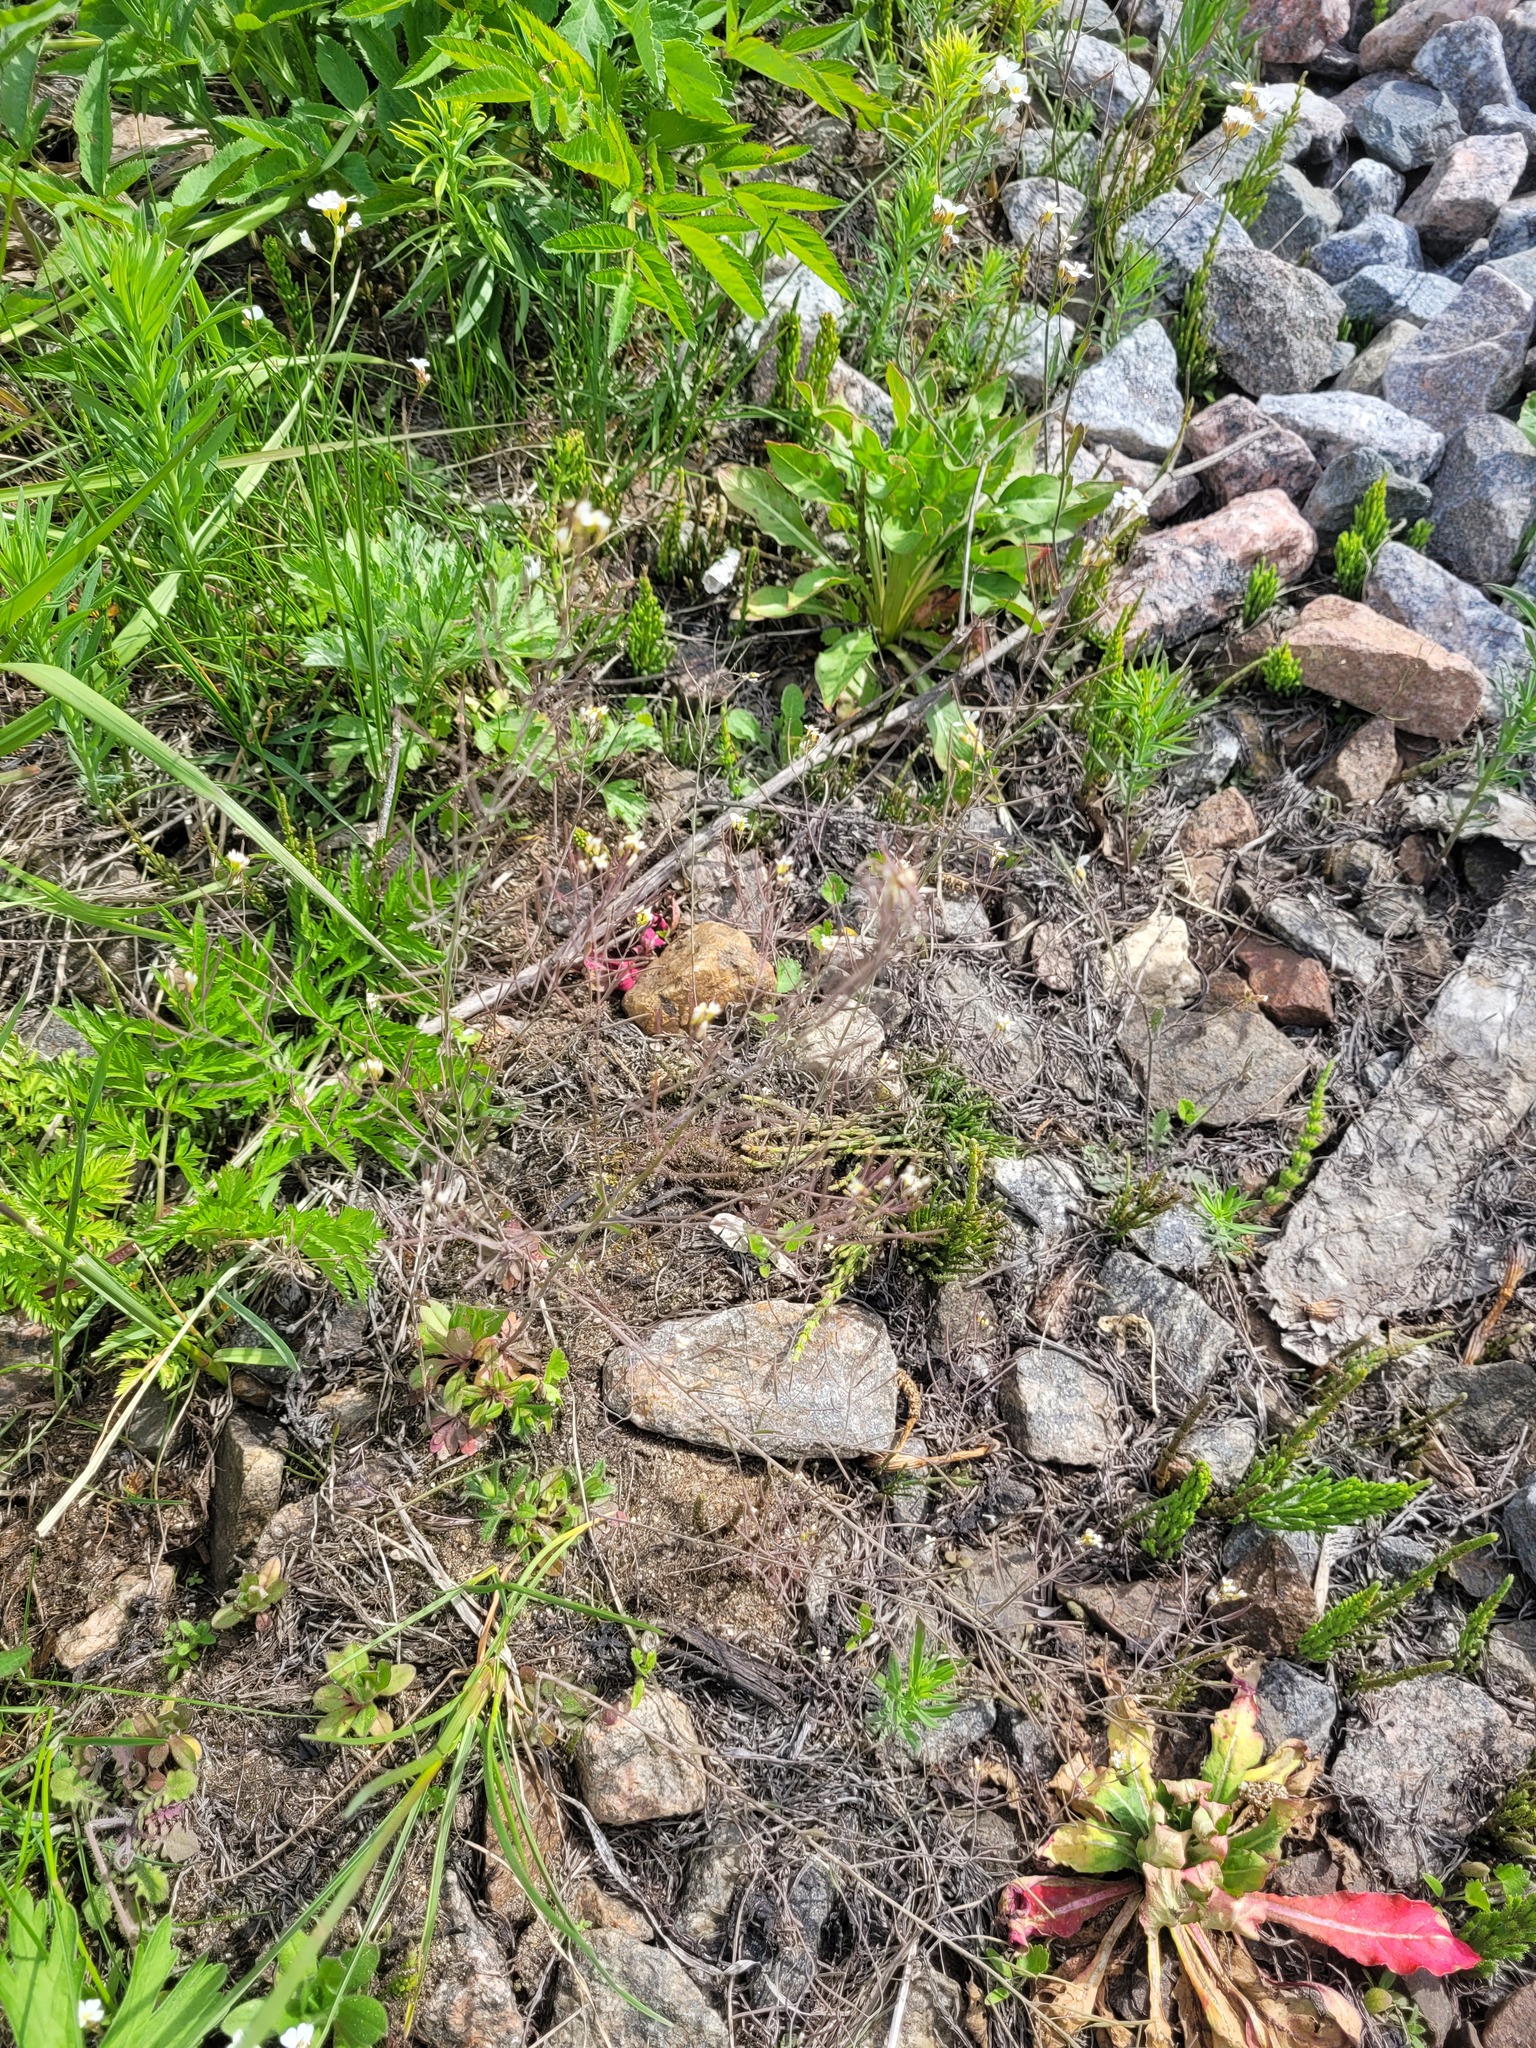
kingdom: Plantae
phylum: Tracheophyta
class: Magnoliopsida
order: Brassicales
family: Brassicaceae
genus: Arabidopsis
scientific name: Arabidopsis thaliana
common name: Thale cress
